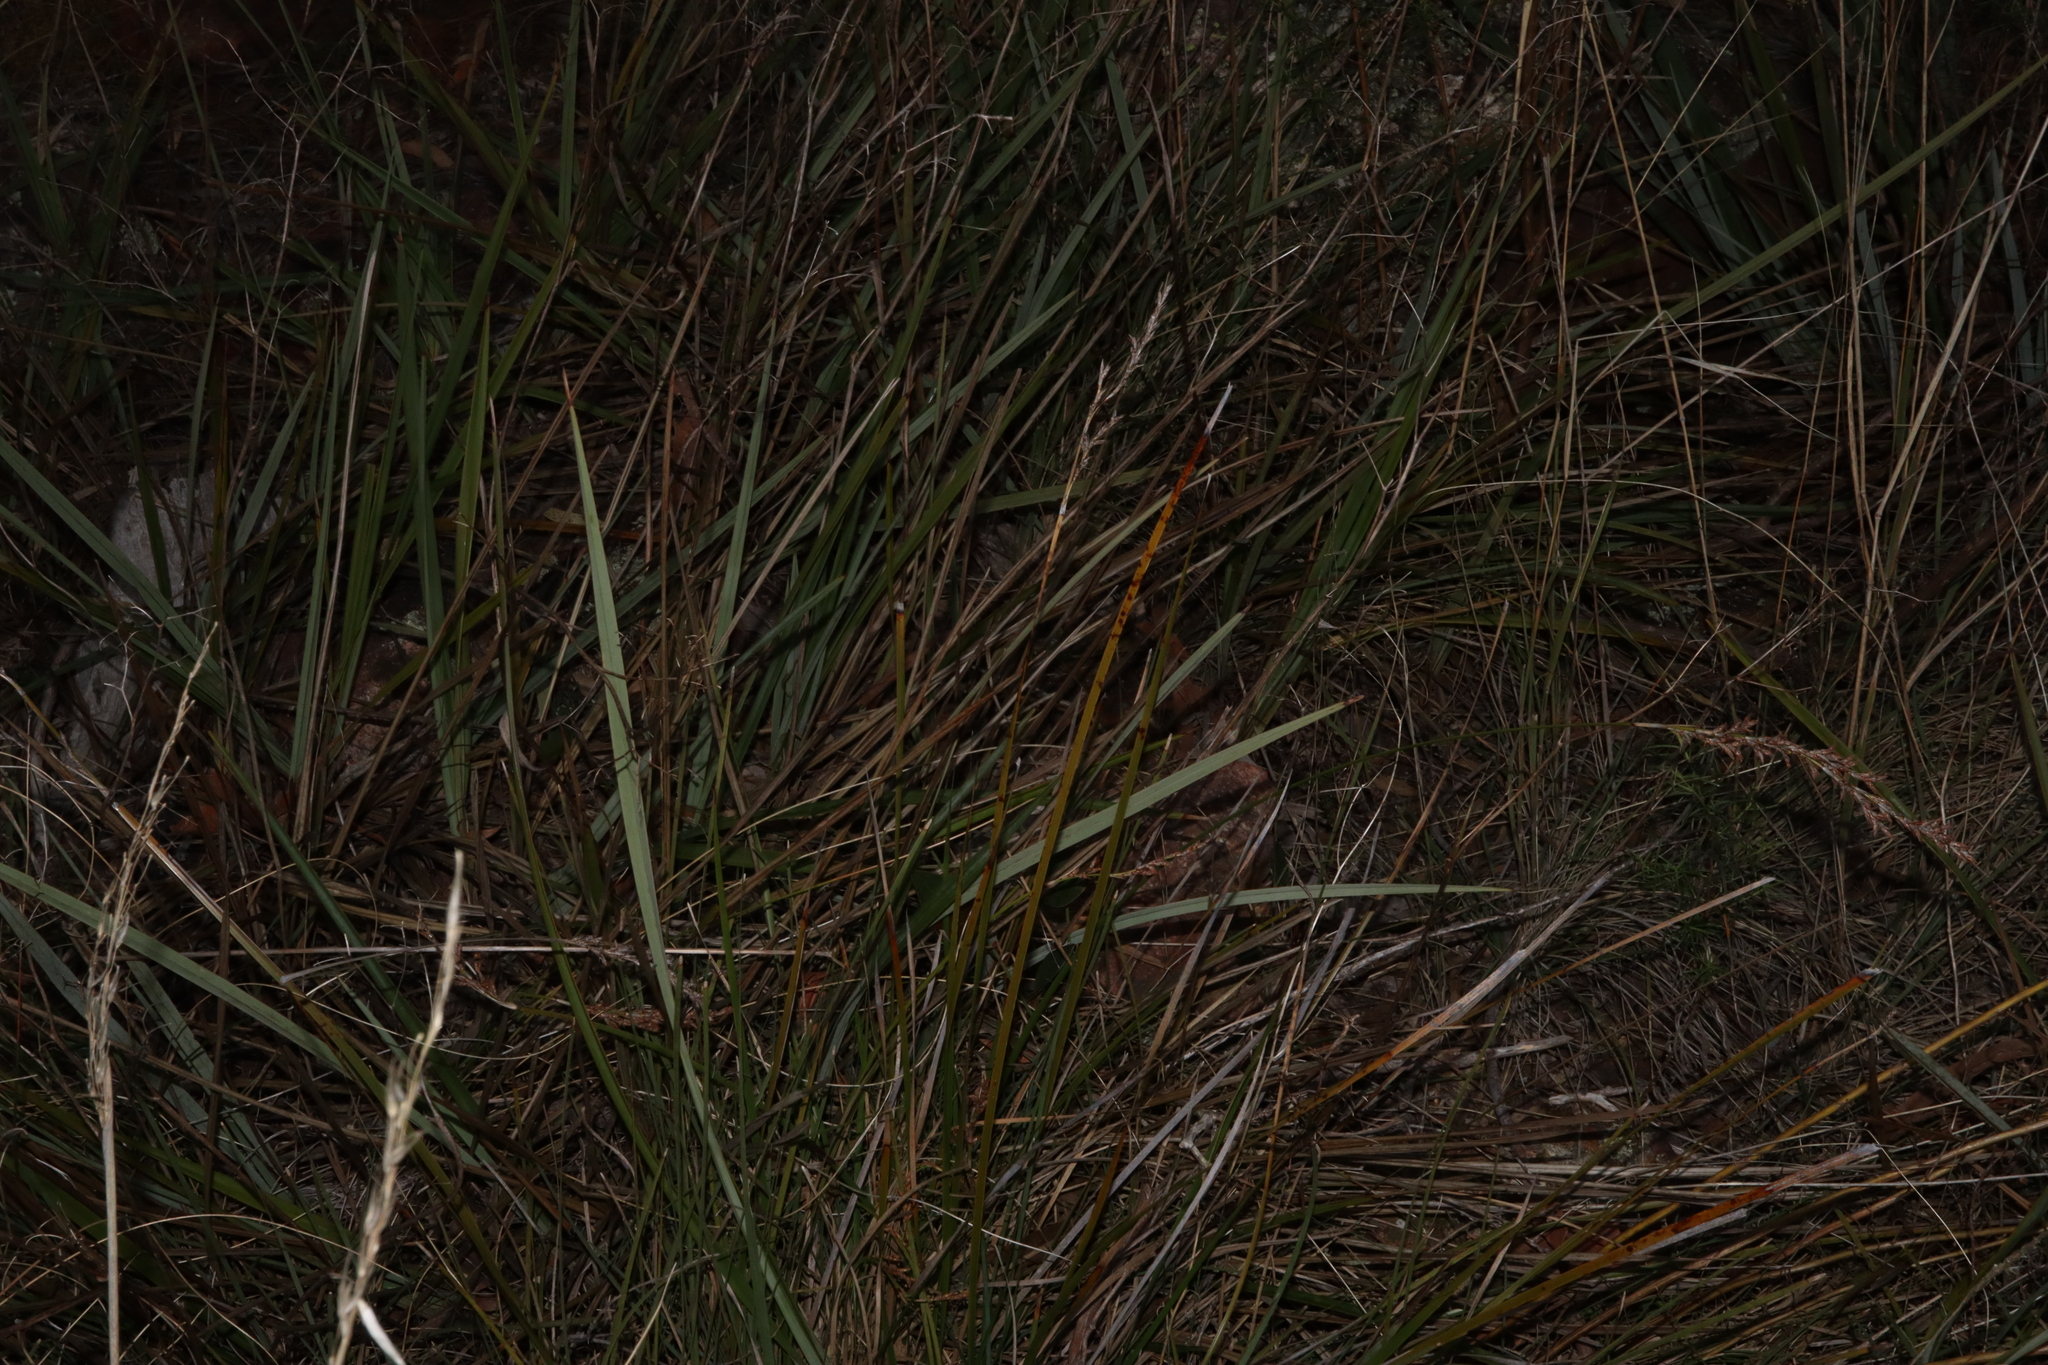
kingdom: Plantae
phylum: Tracheophyta
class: Liliopsida
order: Poales
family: Cyperaceae
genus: Lepidosperma
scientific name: Lepidosperma laterale
